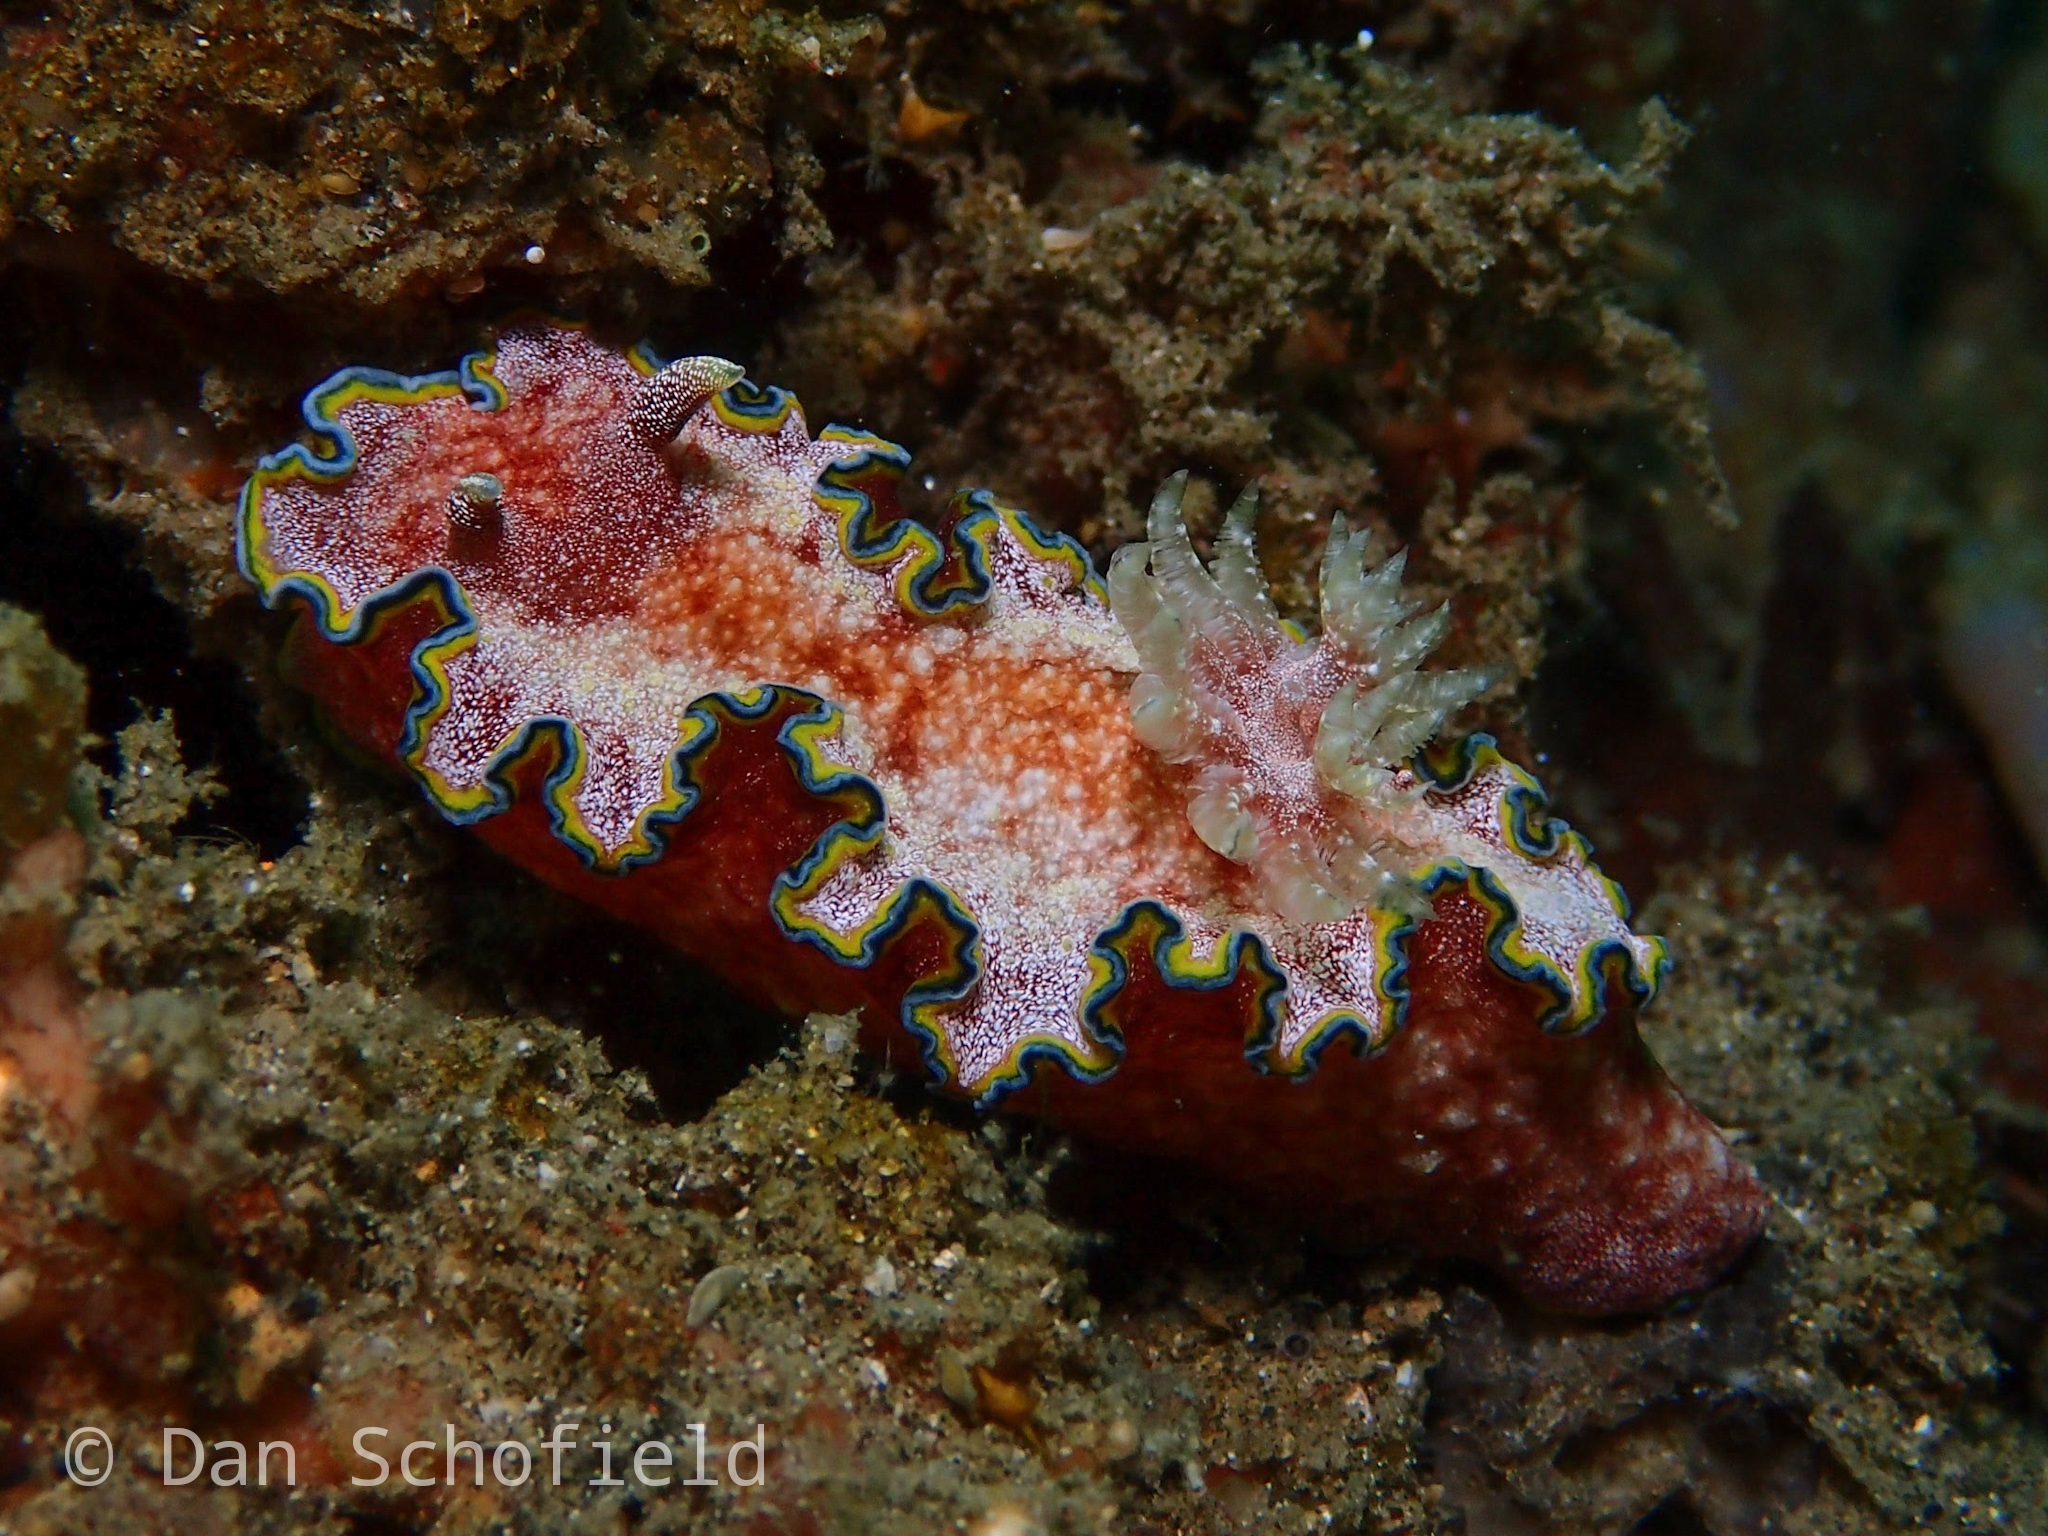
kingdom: Animalia
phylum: Mollusca
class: Gastropoda
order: Nudibranchia
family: Chromodorididae
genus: Glossodoris
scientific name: Glossodoris acosti
